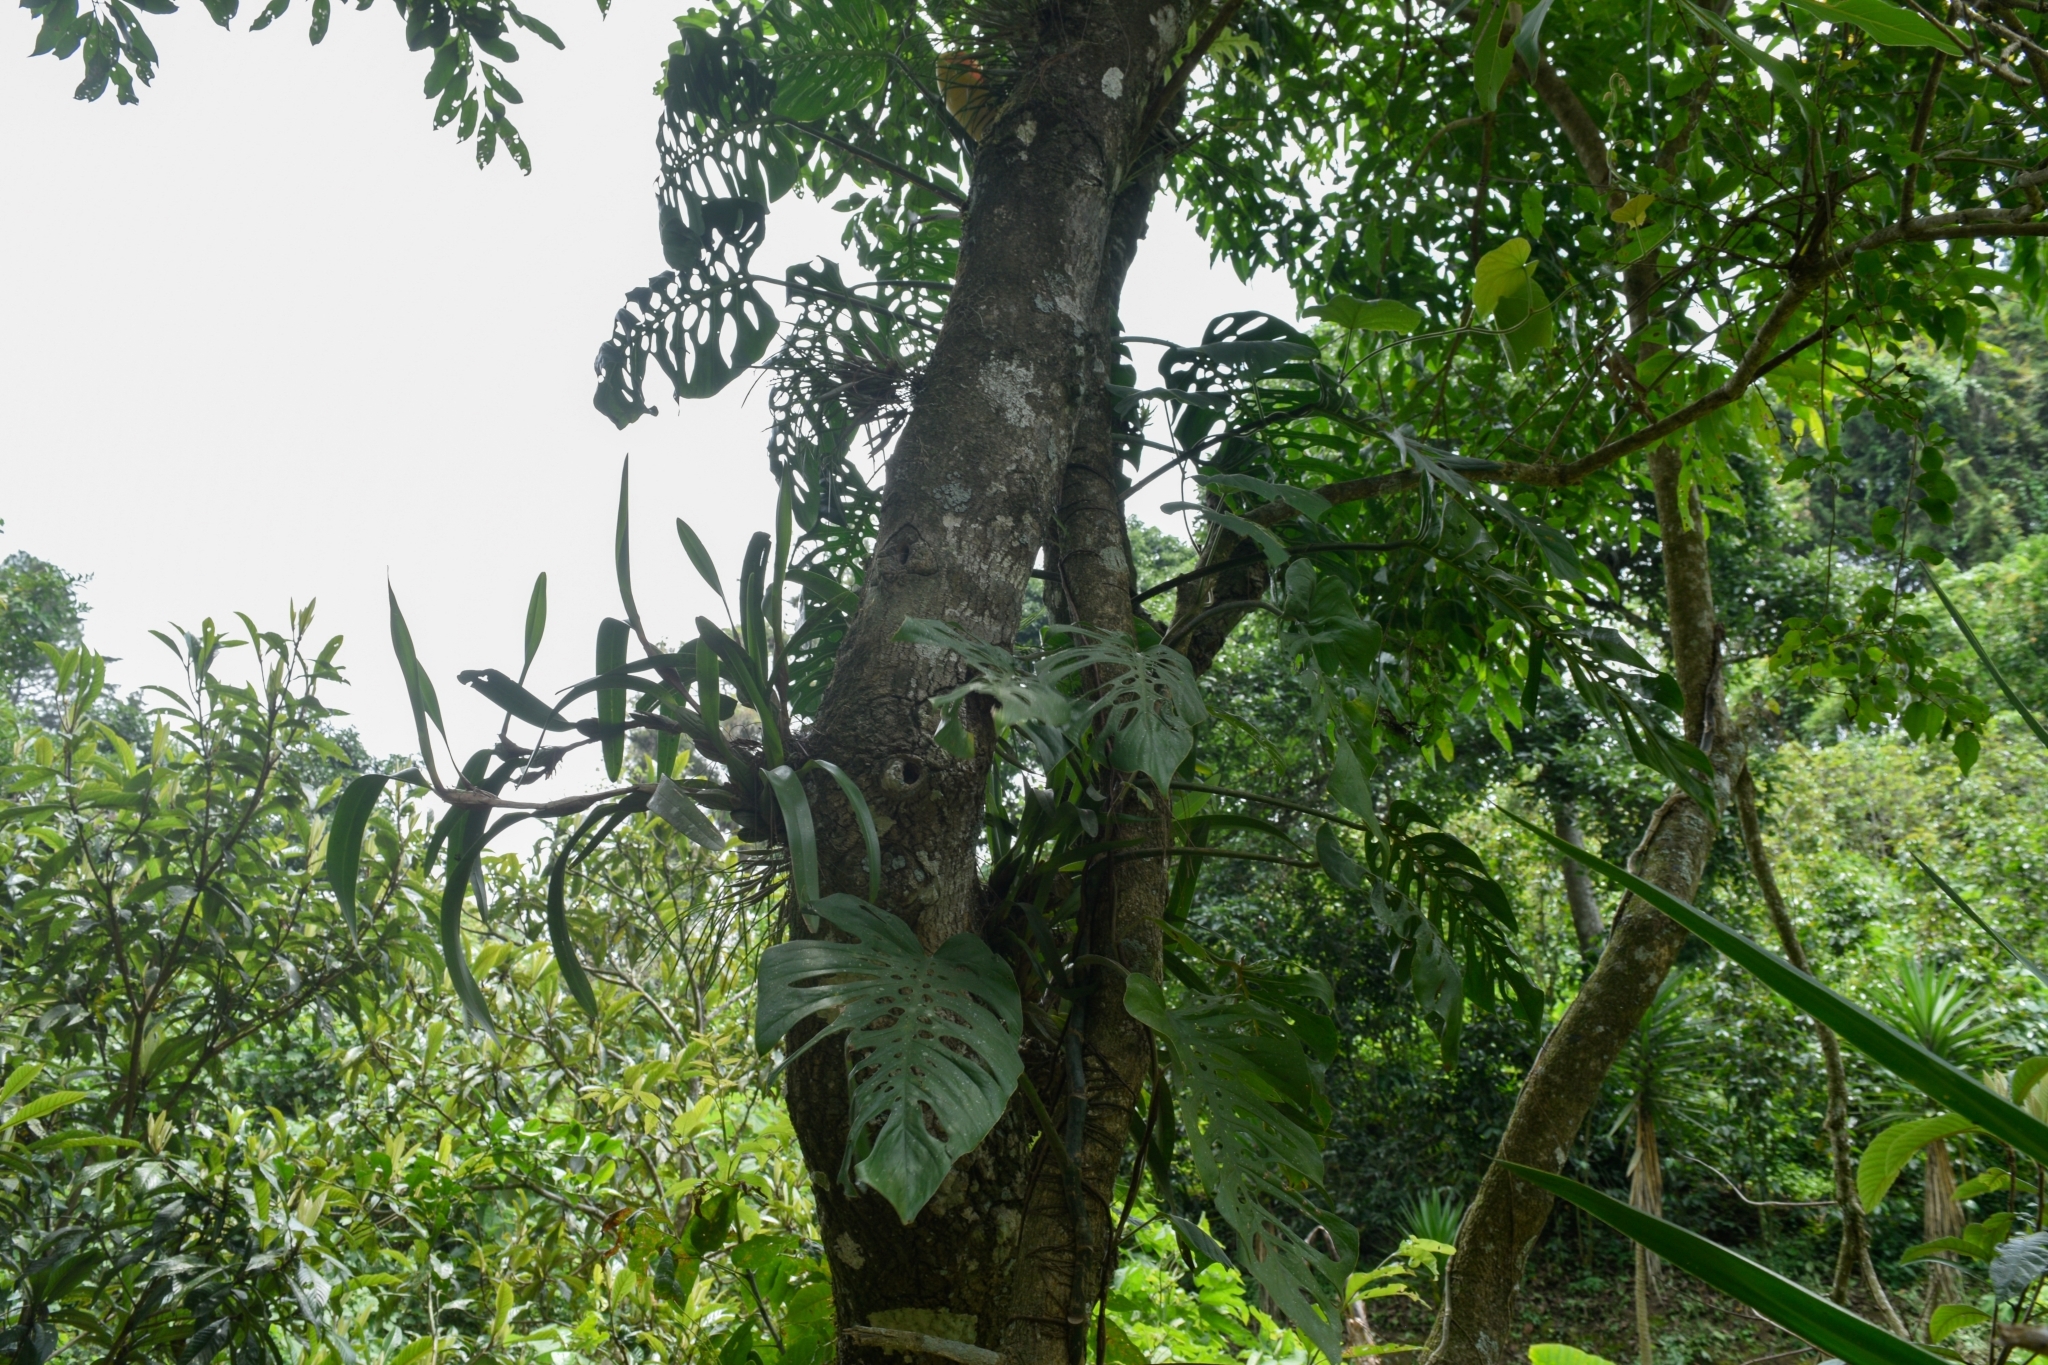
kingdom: Plantae
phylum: Tracheophyta
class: Liliopsida
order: Alismatales
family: Araceae
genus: Monstera
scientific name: Monstera siltepecana
